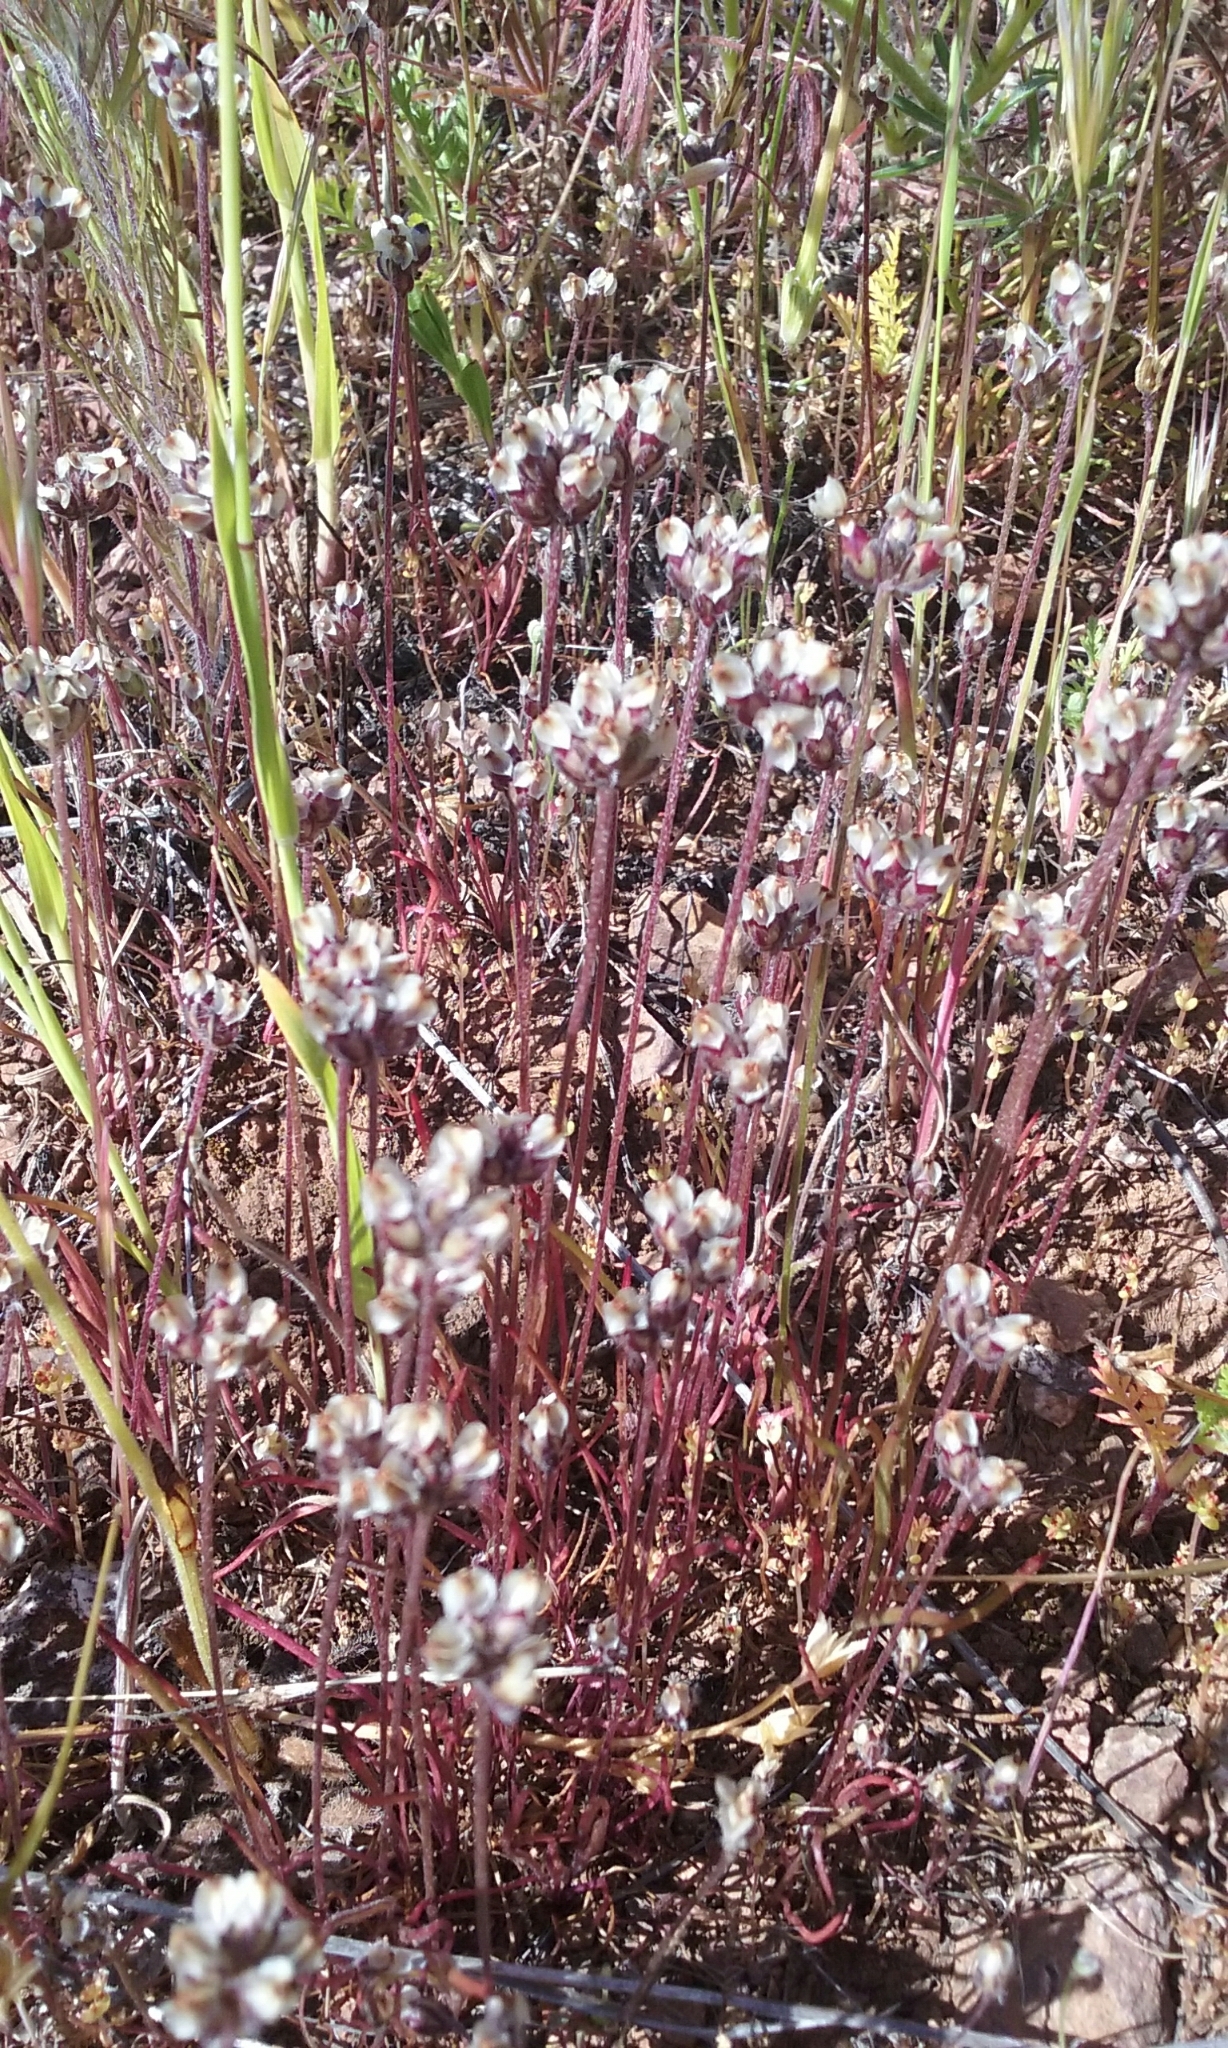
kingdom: Plantae
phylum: Tracheophyta
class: Magnoliopsida
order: Lamiales
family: Plantaginaceae
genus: Plantago
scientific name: Plantago erecta
